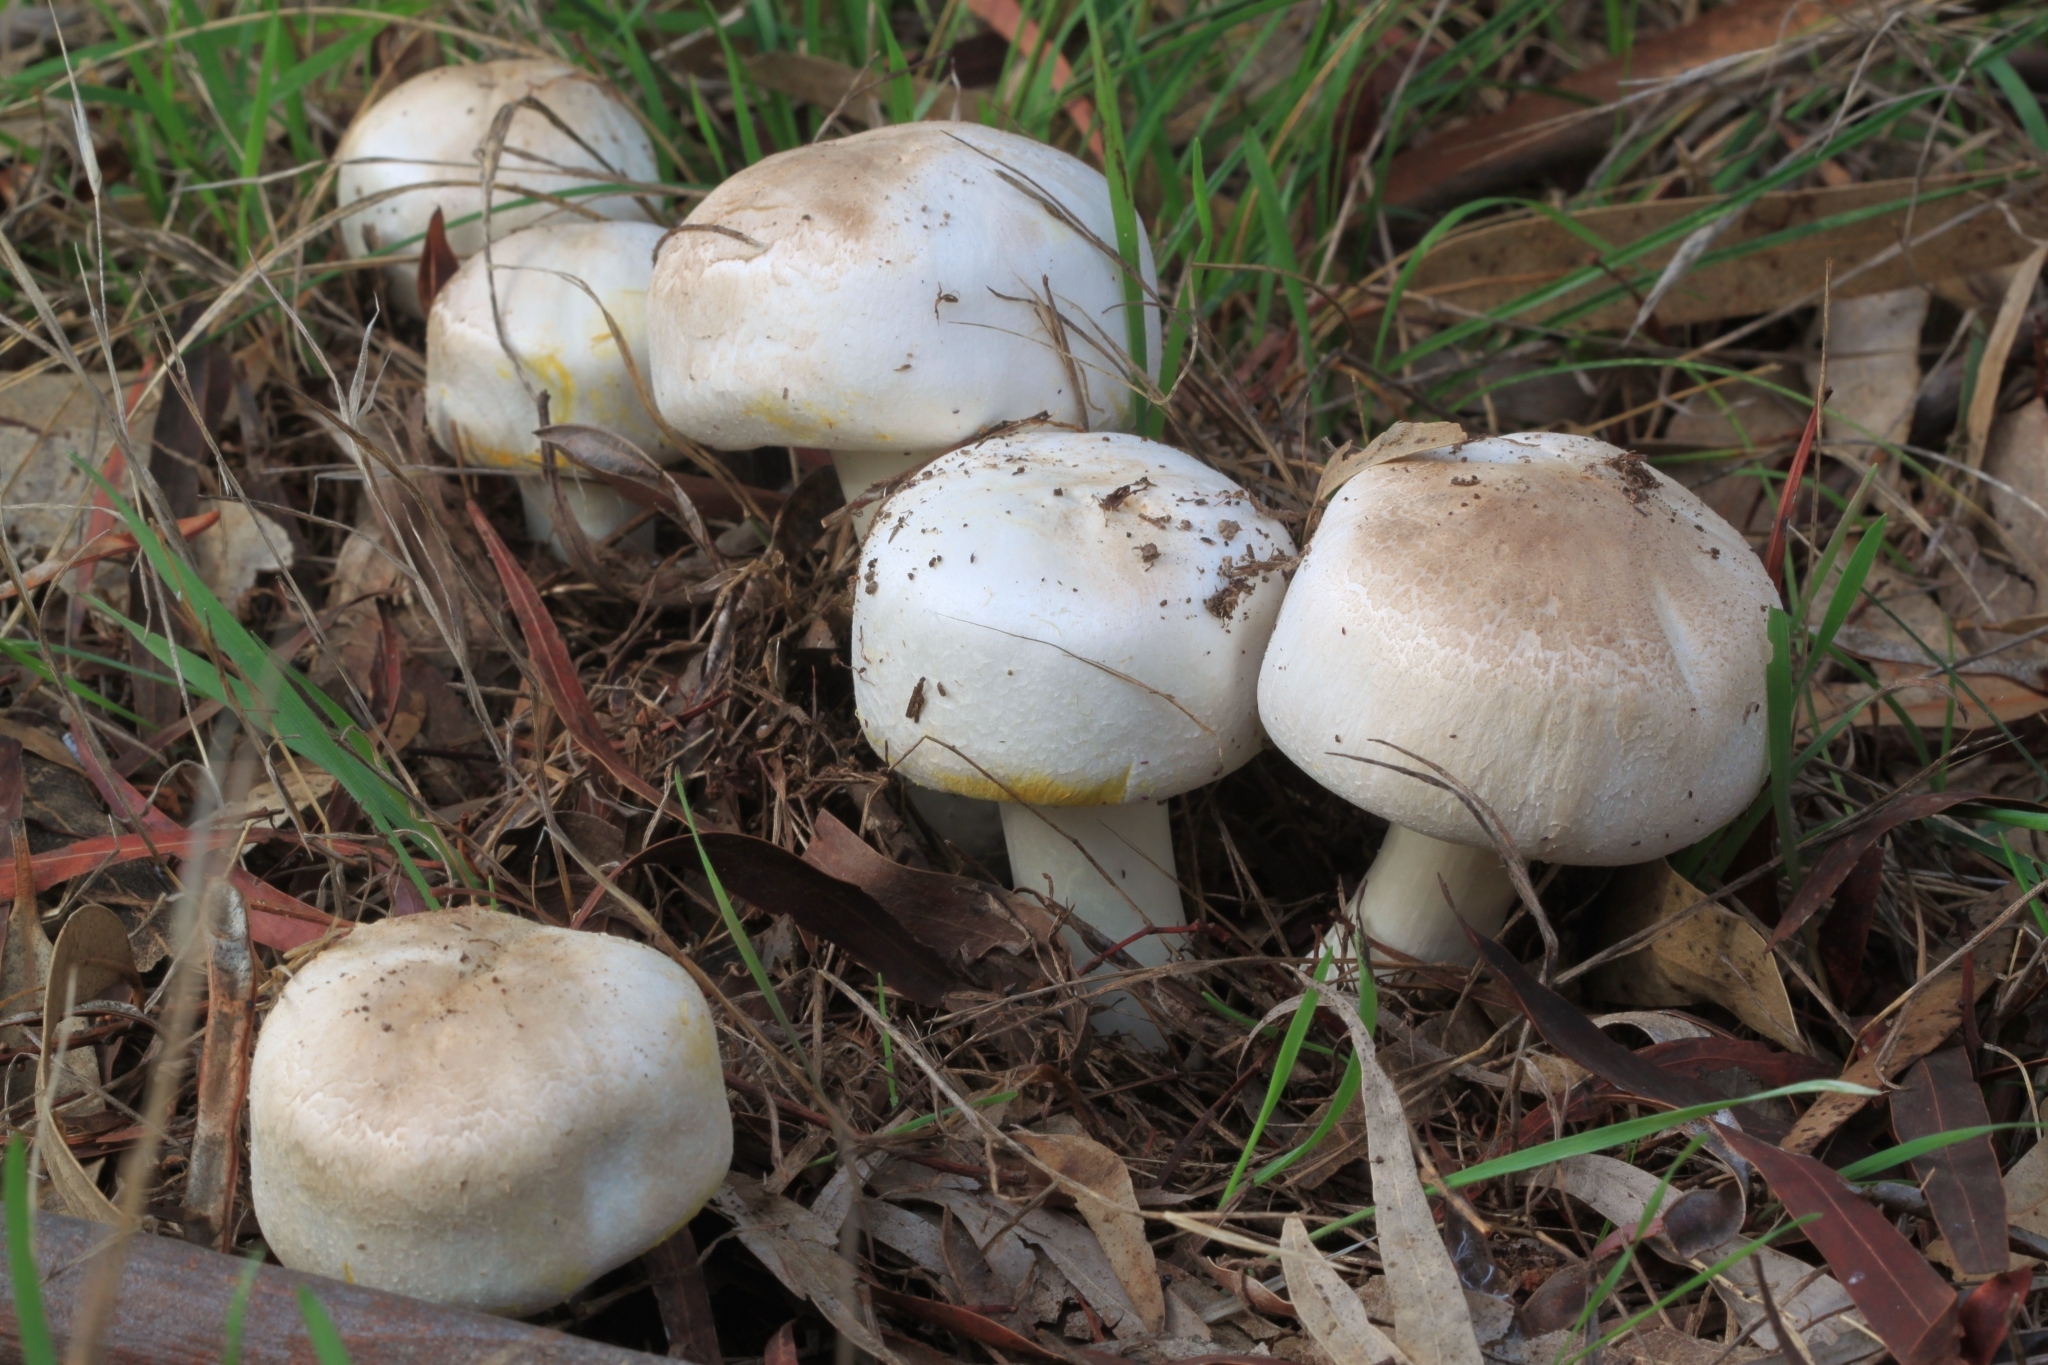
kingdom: Fungi
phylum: Basidiomycota
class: Agaricomycetes
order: Agaricales
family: Agaricaceae
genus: Agaricus
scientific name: Agaricus xanthodermus
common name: Yellow stainer
